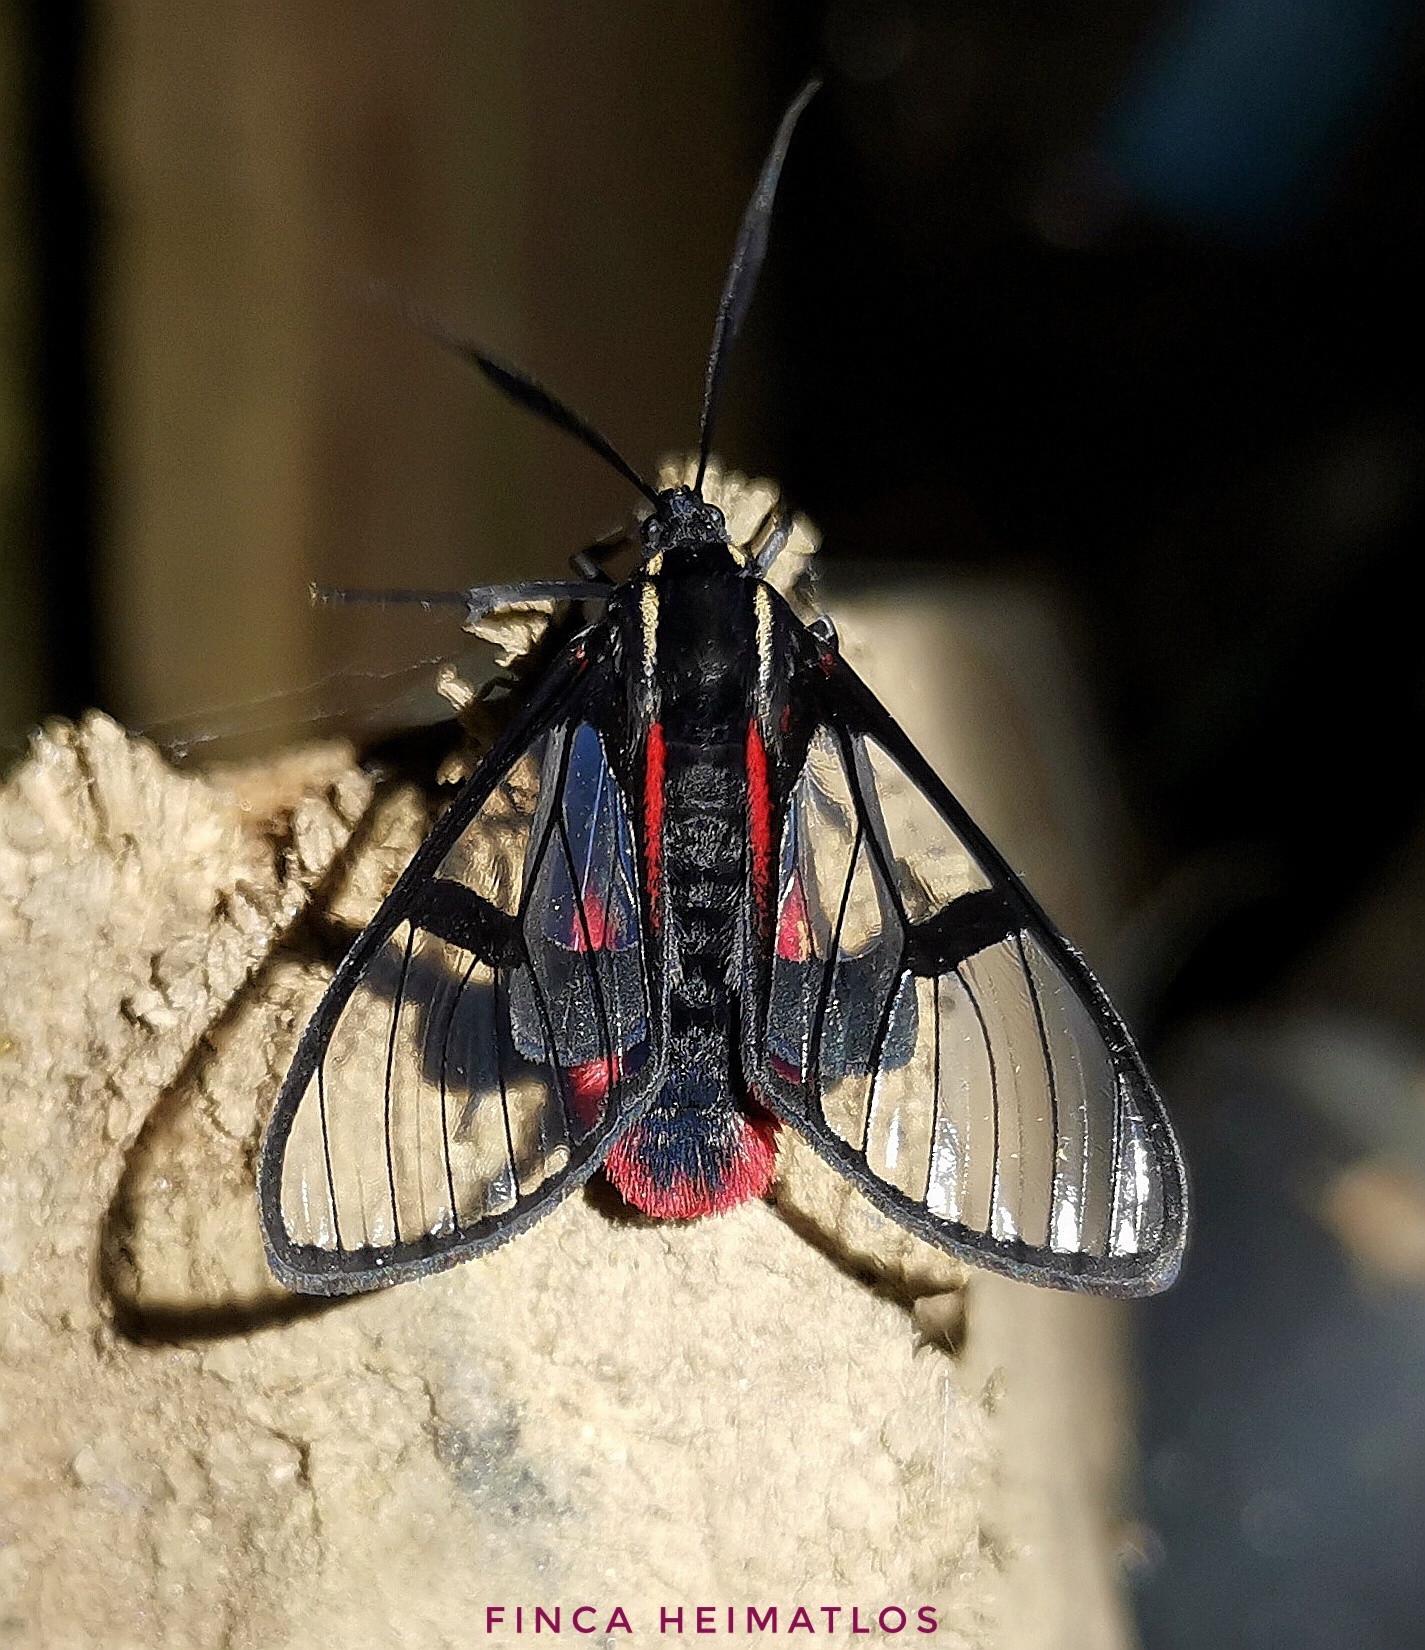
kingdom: Animalia
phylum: Arthropoda
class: Insecta
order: Lepidoptera
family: Erebidae
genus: Dinia
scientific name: Dinia eagrus
